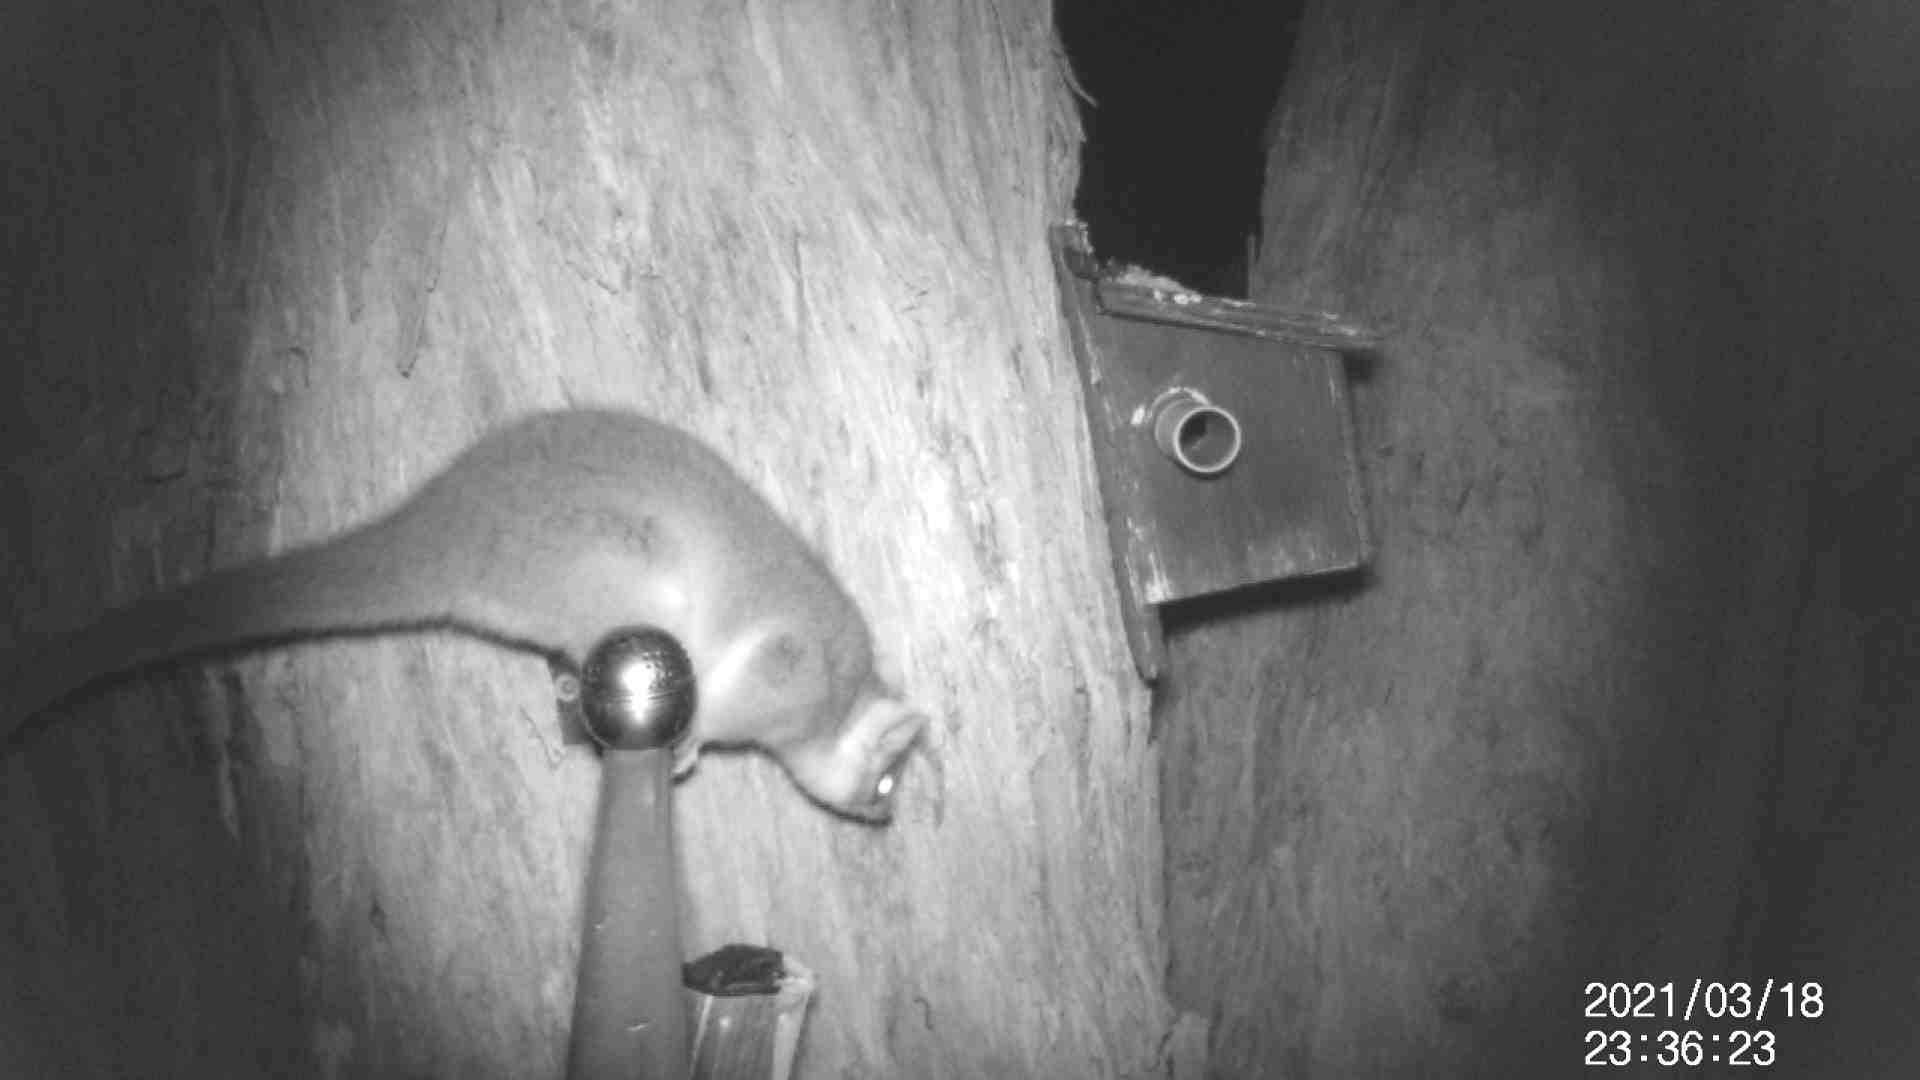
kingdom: Animalia
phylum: Chordata
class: Mammalia
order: Diprotodontia
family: Pseudocheiridae
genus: Pseudocheirus
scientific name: Pseudocheirus peregrinus
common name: Common ringtail possum
